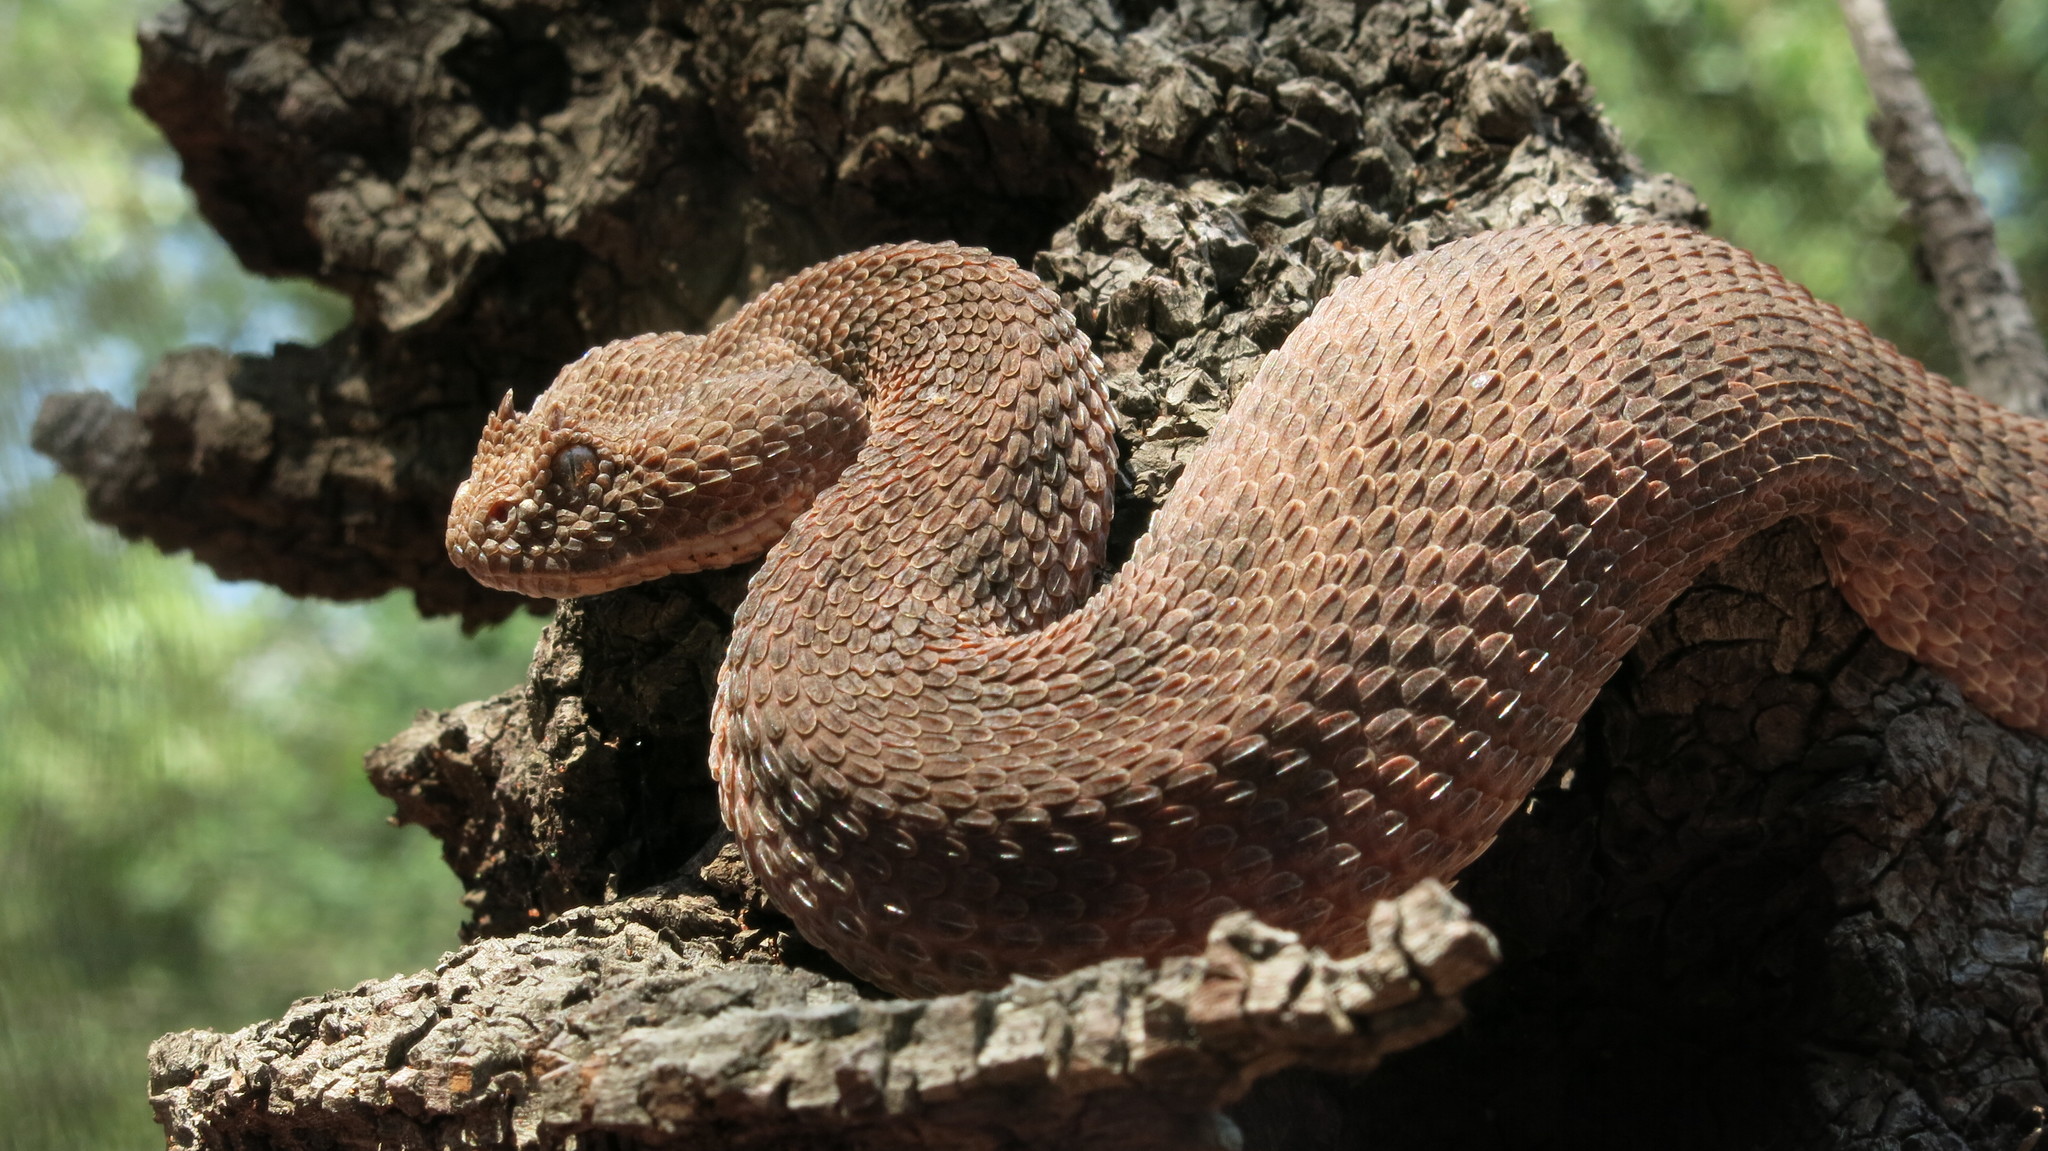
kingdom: Animalia
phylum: Chordata
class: Squamata
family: Viperidae
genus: Bitis
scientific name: Bitis caudalis
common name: Horned adder
